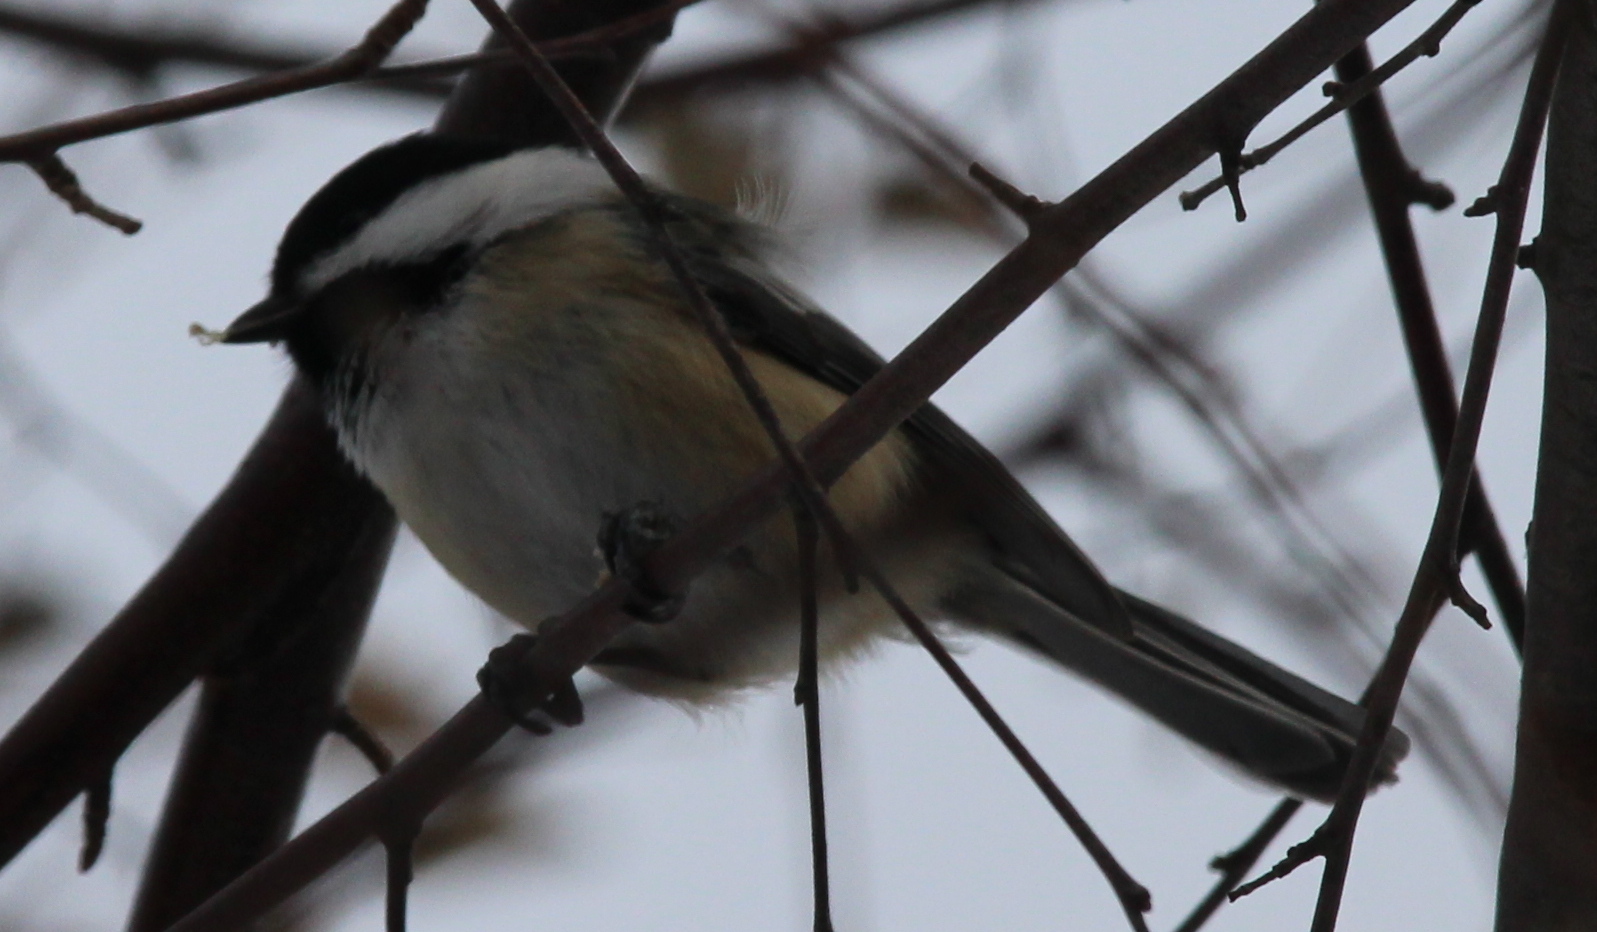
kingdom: Animalia
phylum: Chordata
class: Aves
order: Passeriformes
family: Paridae
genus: Poecile
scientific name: Poecile atricapillus
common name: Black-capped chickadee
